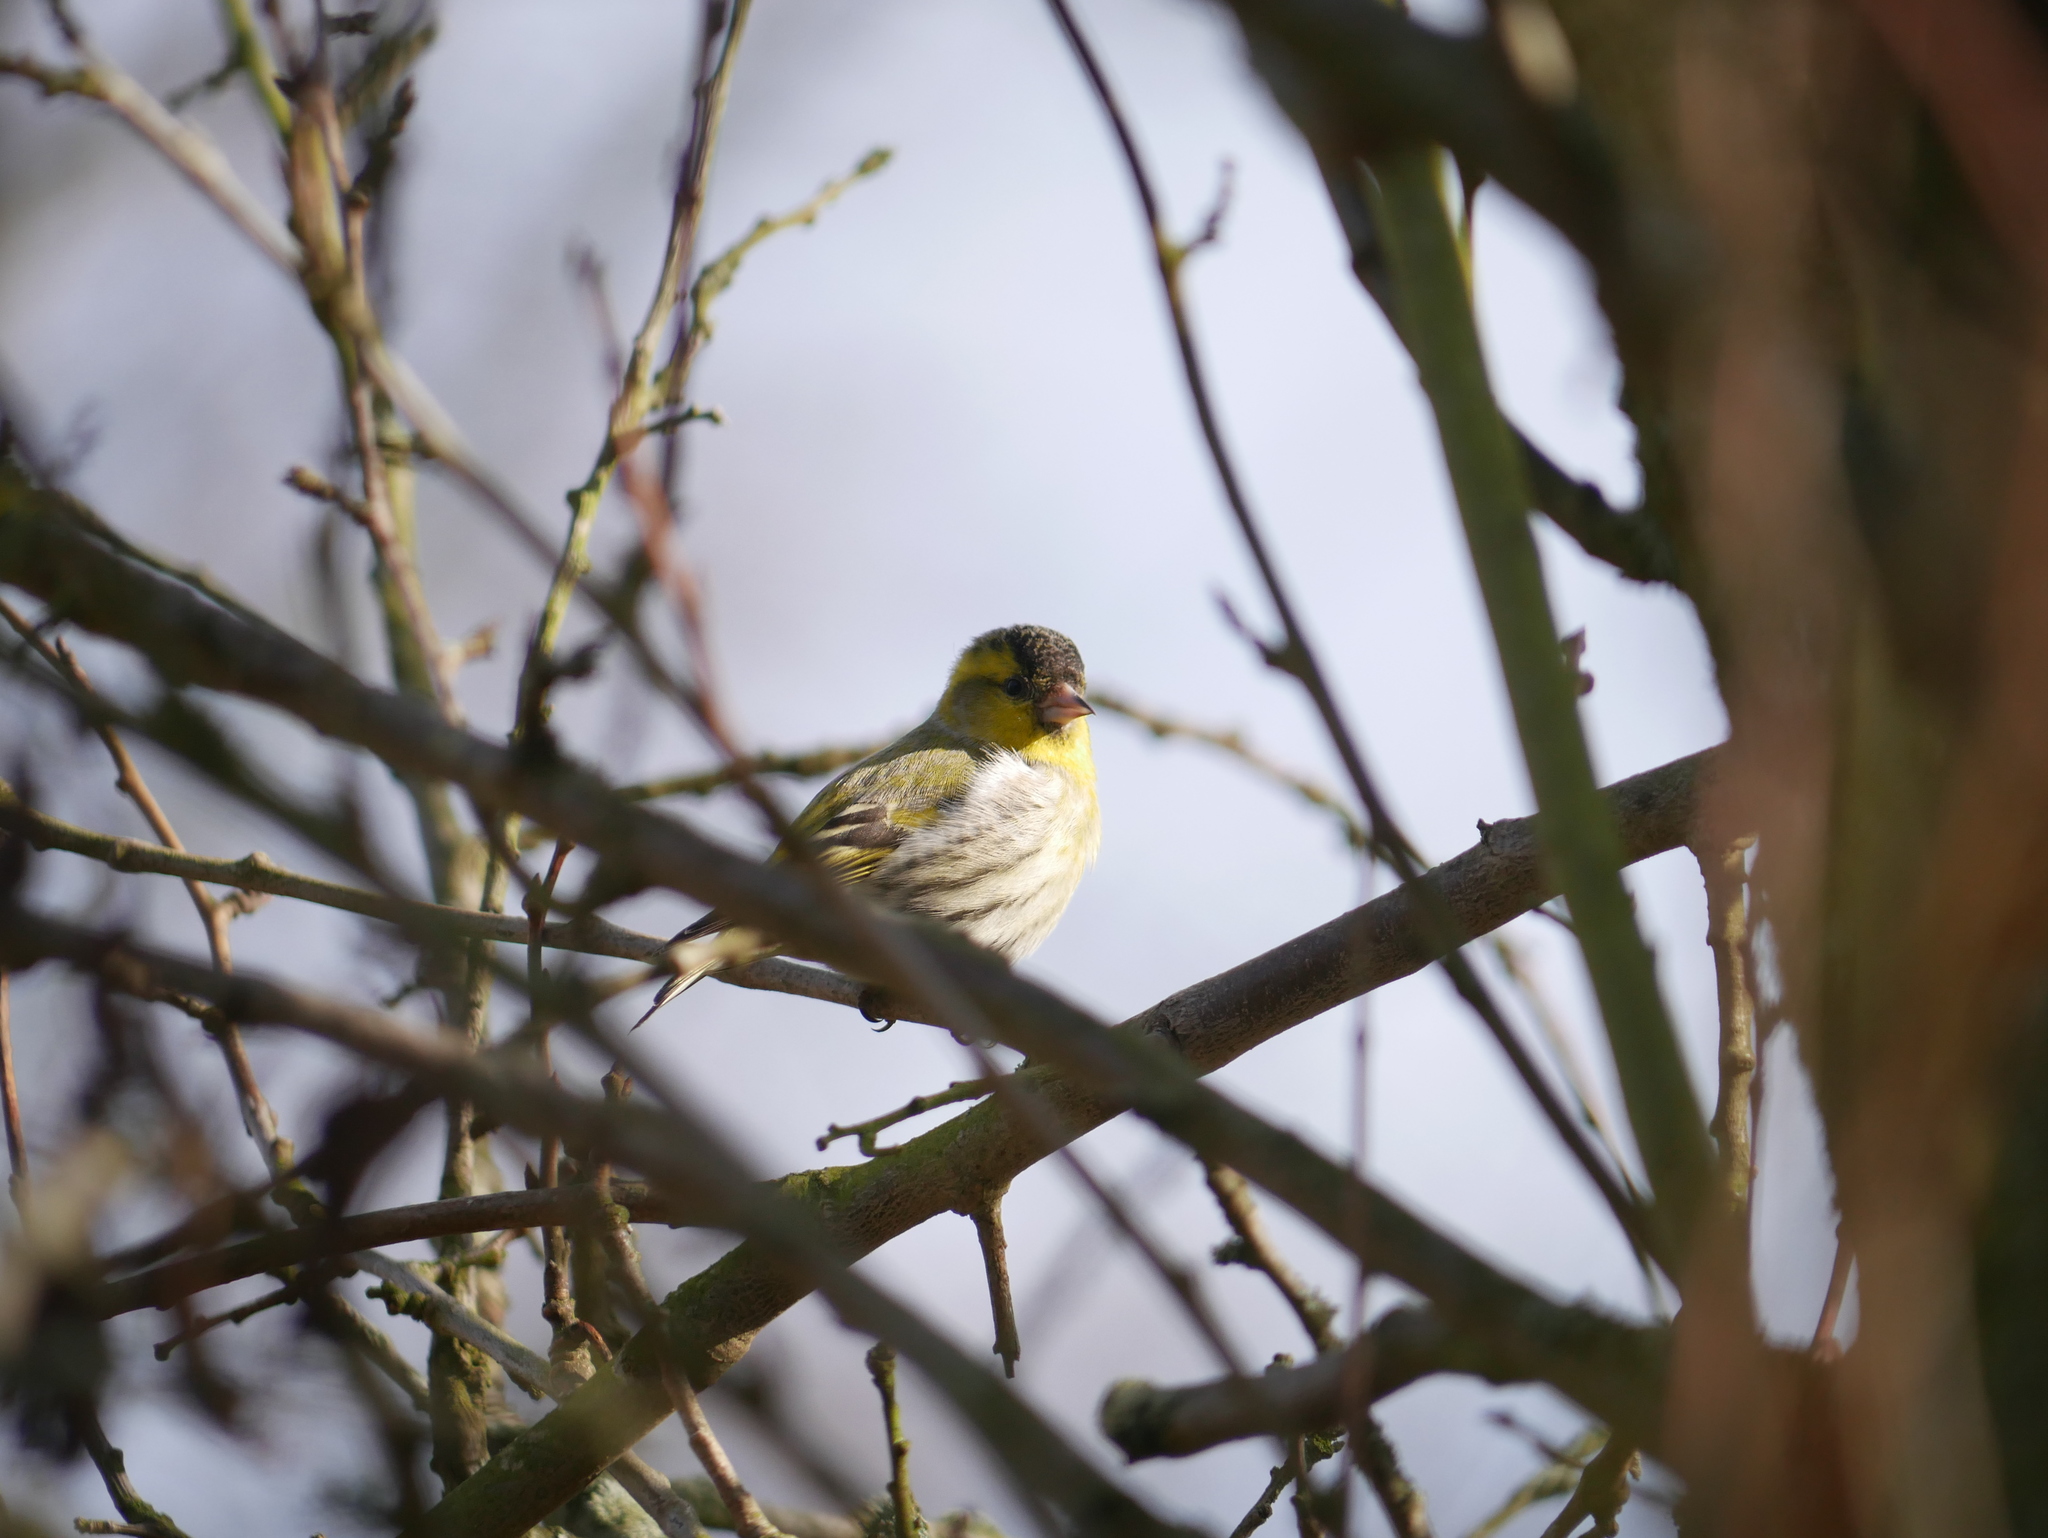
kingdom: Animalia
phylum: Chordata
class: Aves
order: Passeriformes
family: Fringillidae
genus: Spinus
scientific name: Spinus spinus
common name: Eurasian siskin
